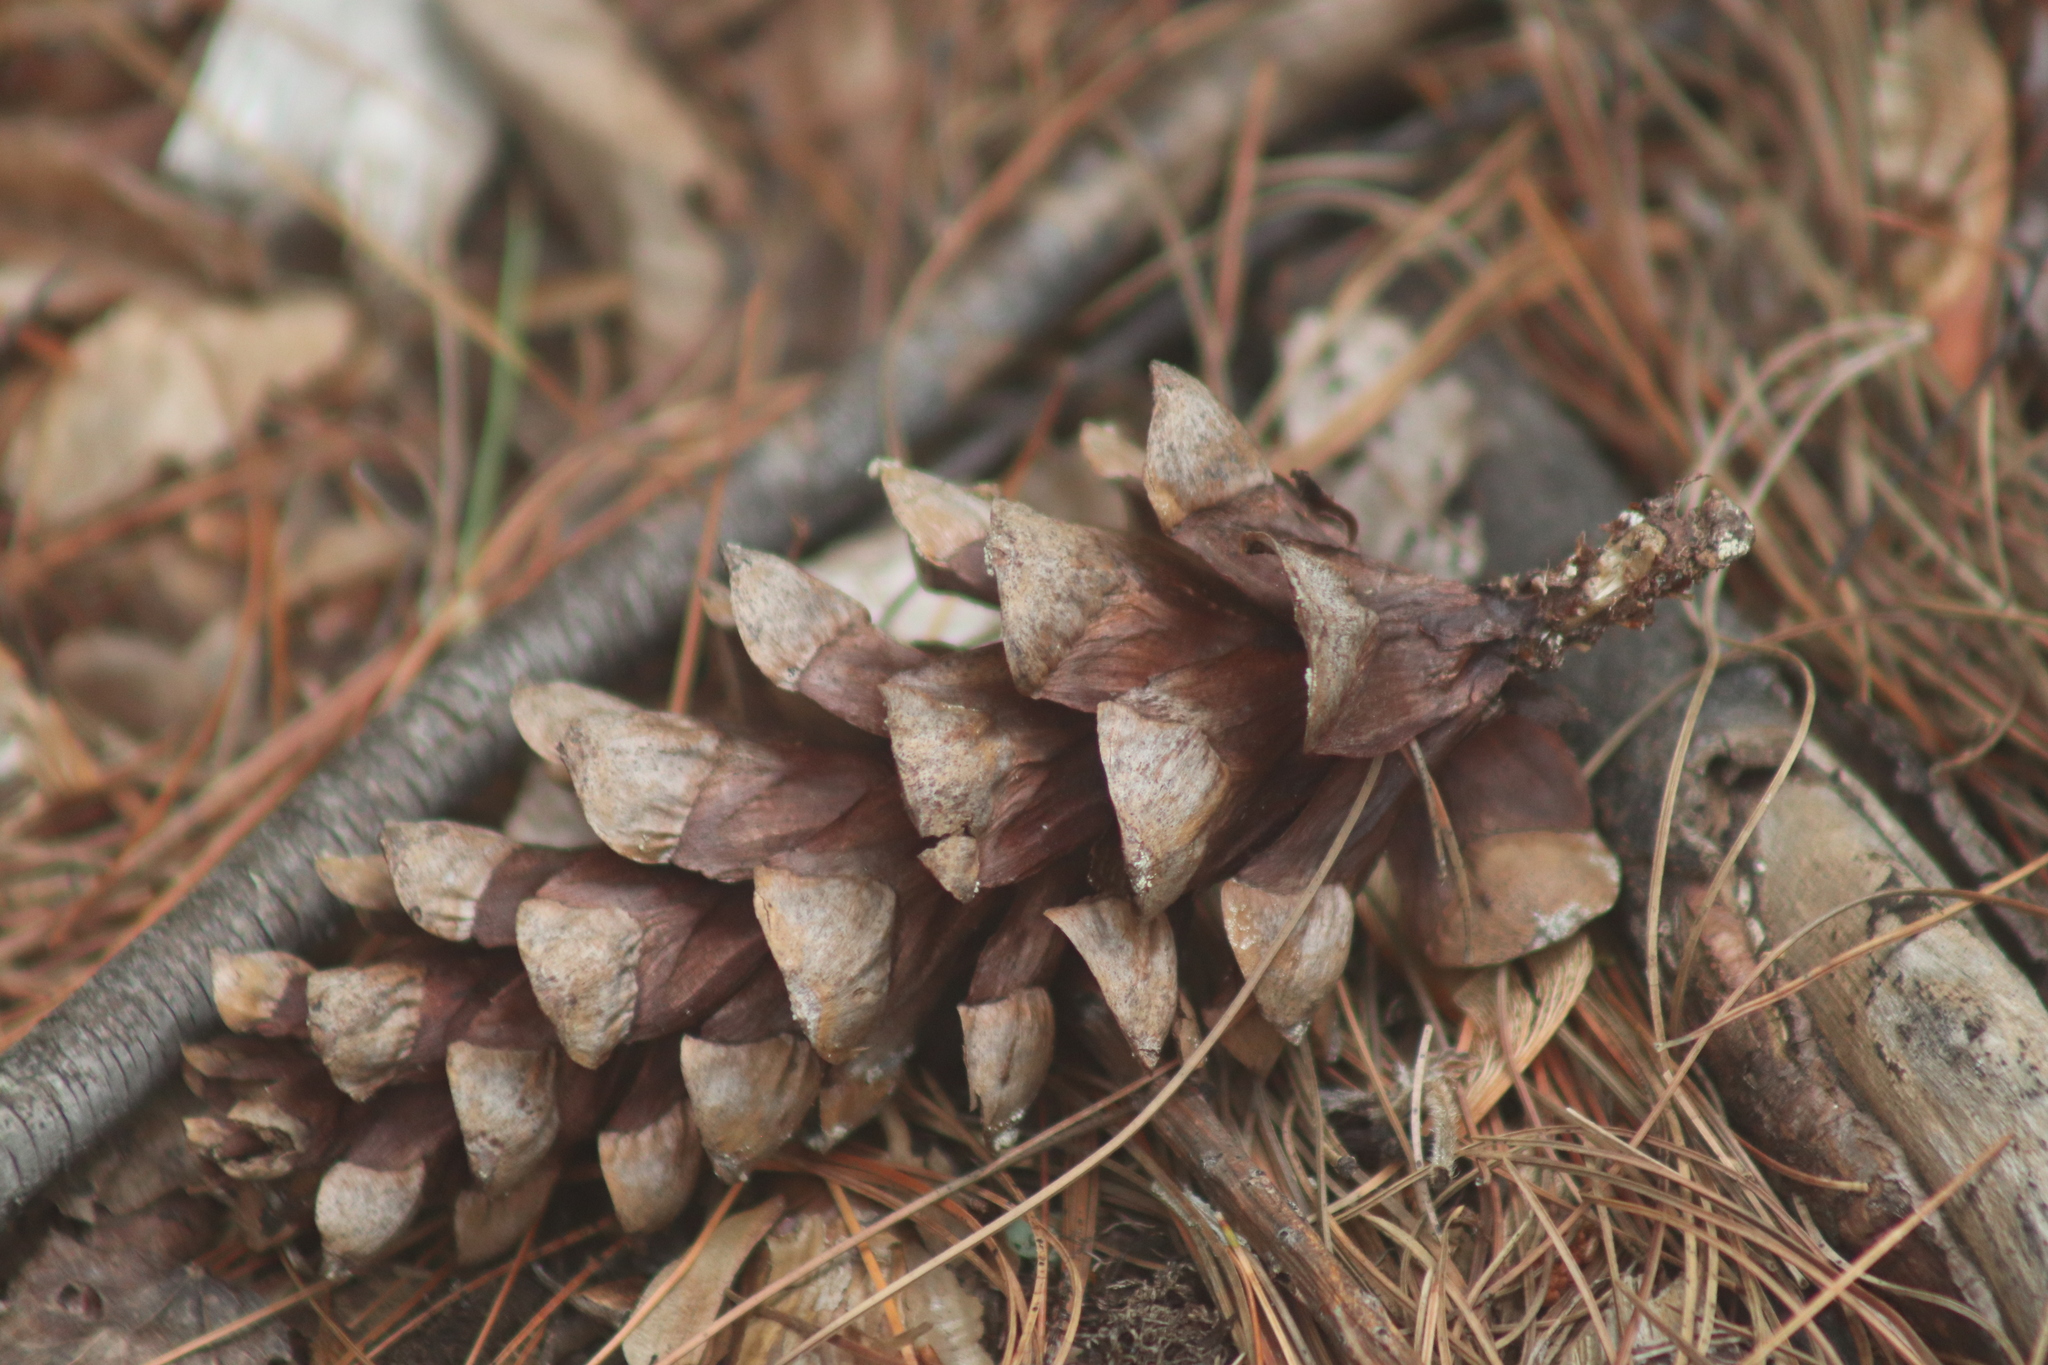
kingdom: Plantae
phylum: Tracheophyta
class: Pinopsida
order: Pinales
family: Pinaceae
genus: Pinus
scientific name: Pinus strobus
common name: Weymouth pine
